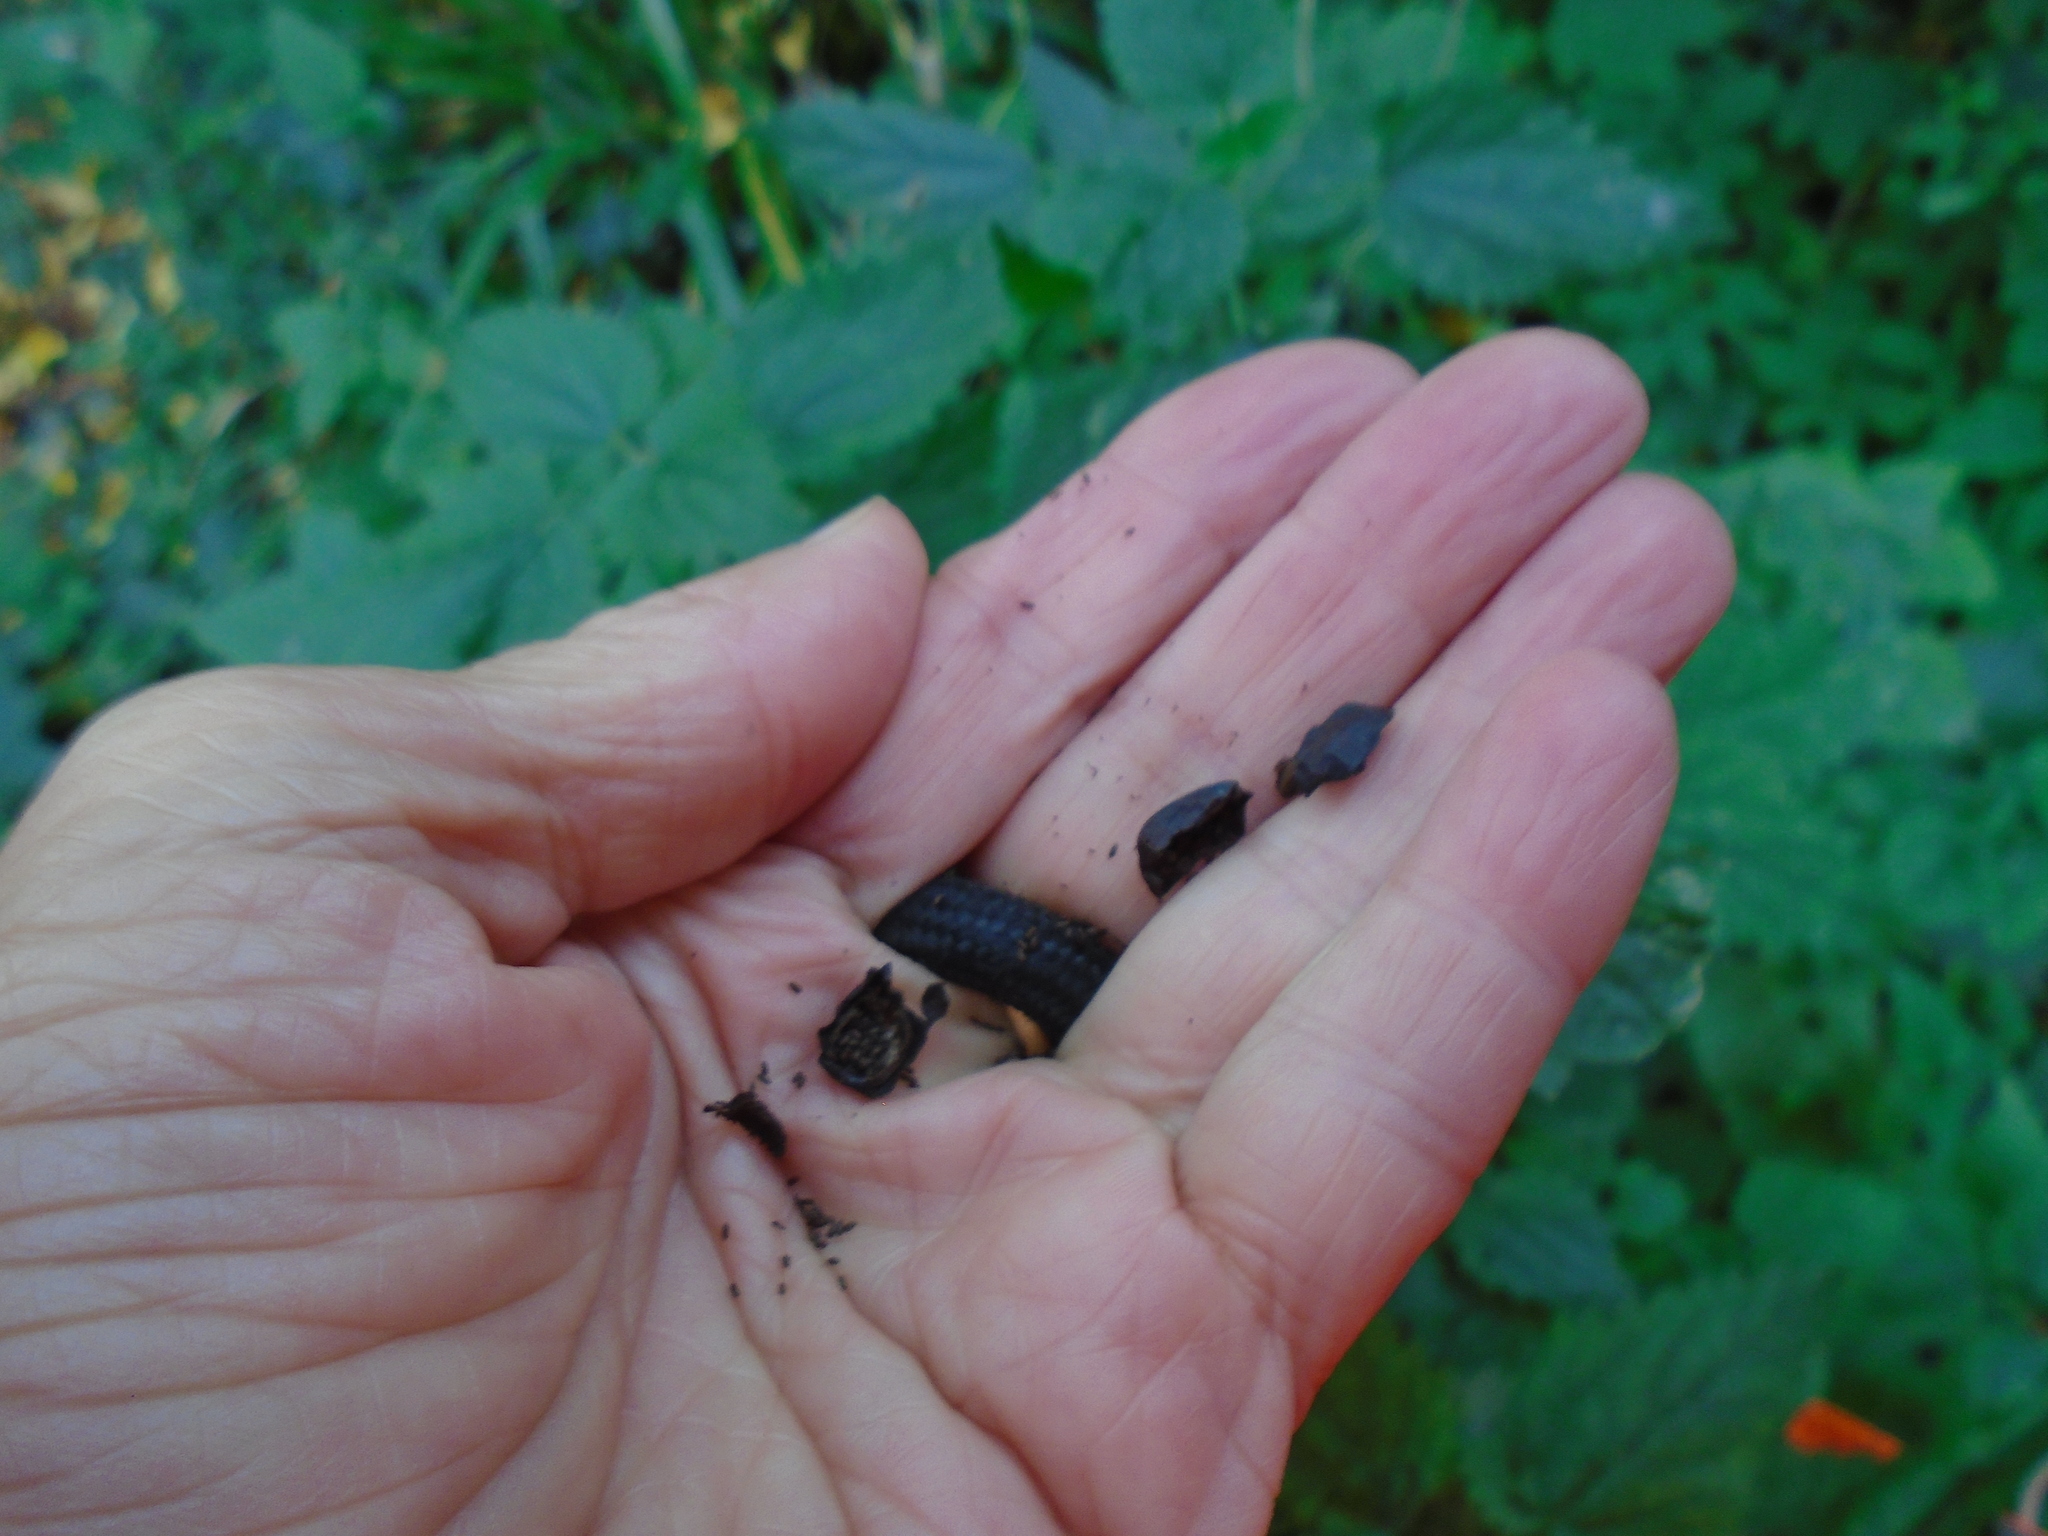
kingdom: Plantae
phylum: Tracheophyta
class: Magnoliopsida
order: Malpighiales
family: Hypericaceae
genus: Hypericum
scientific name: Hypericum androsaemum
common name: Sweet-amber
